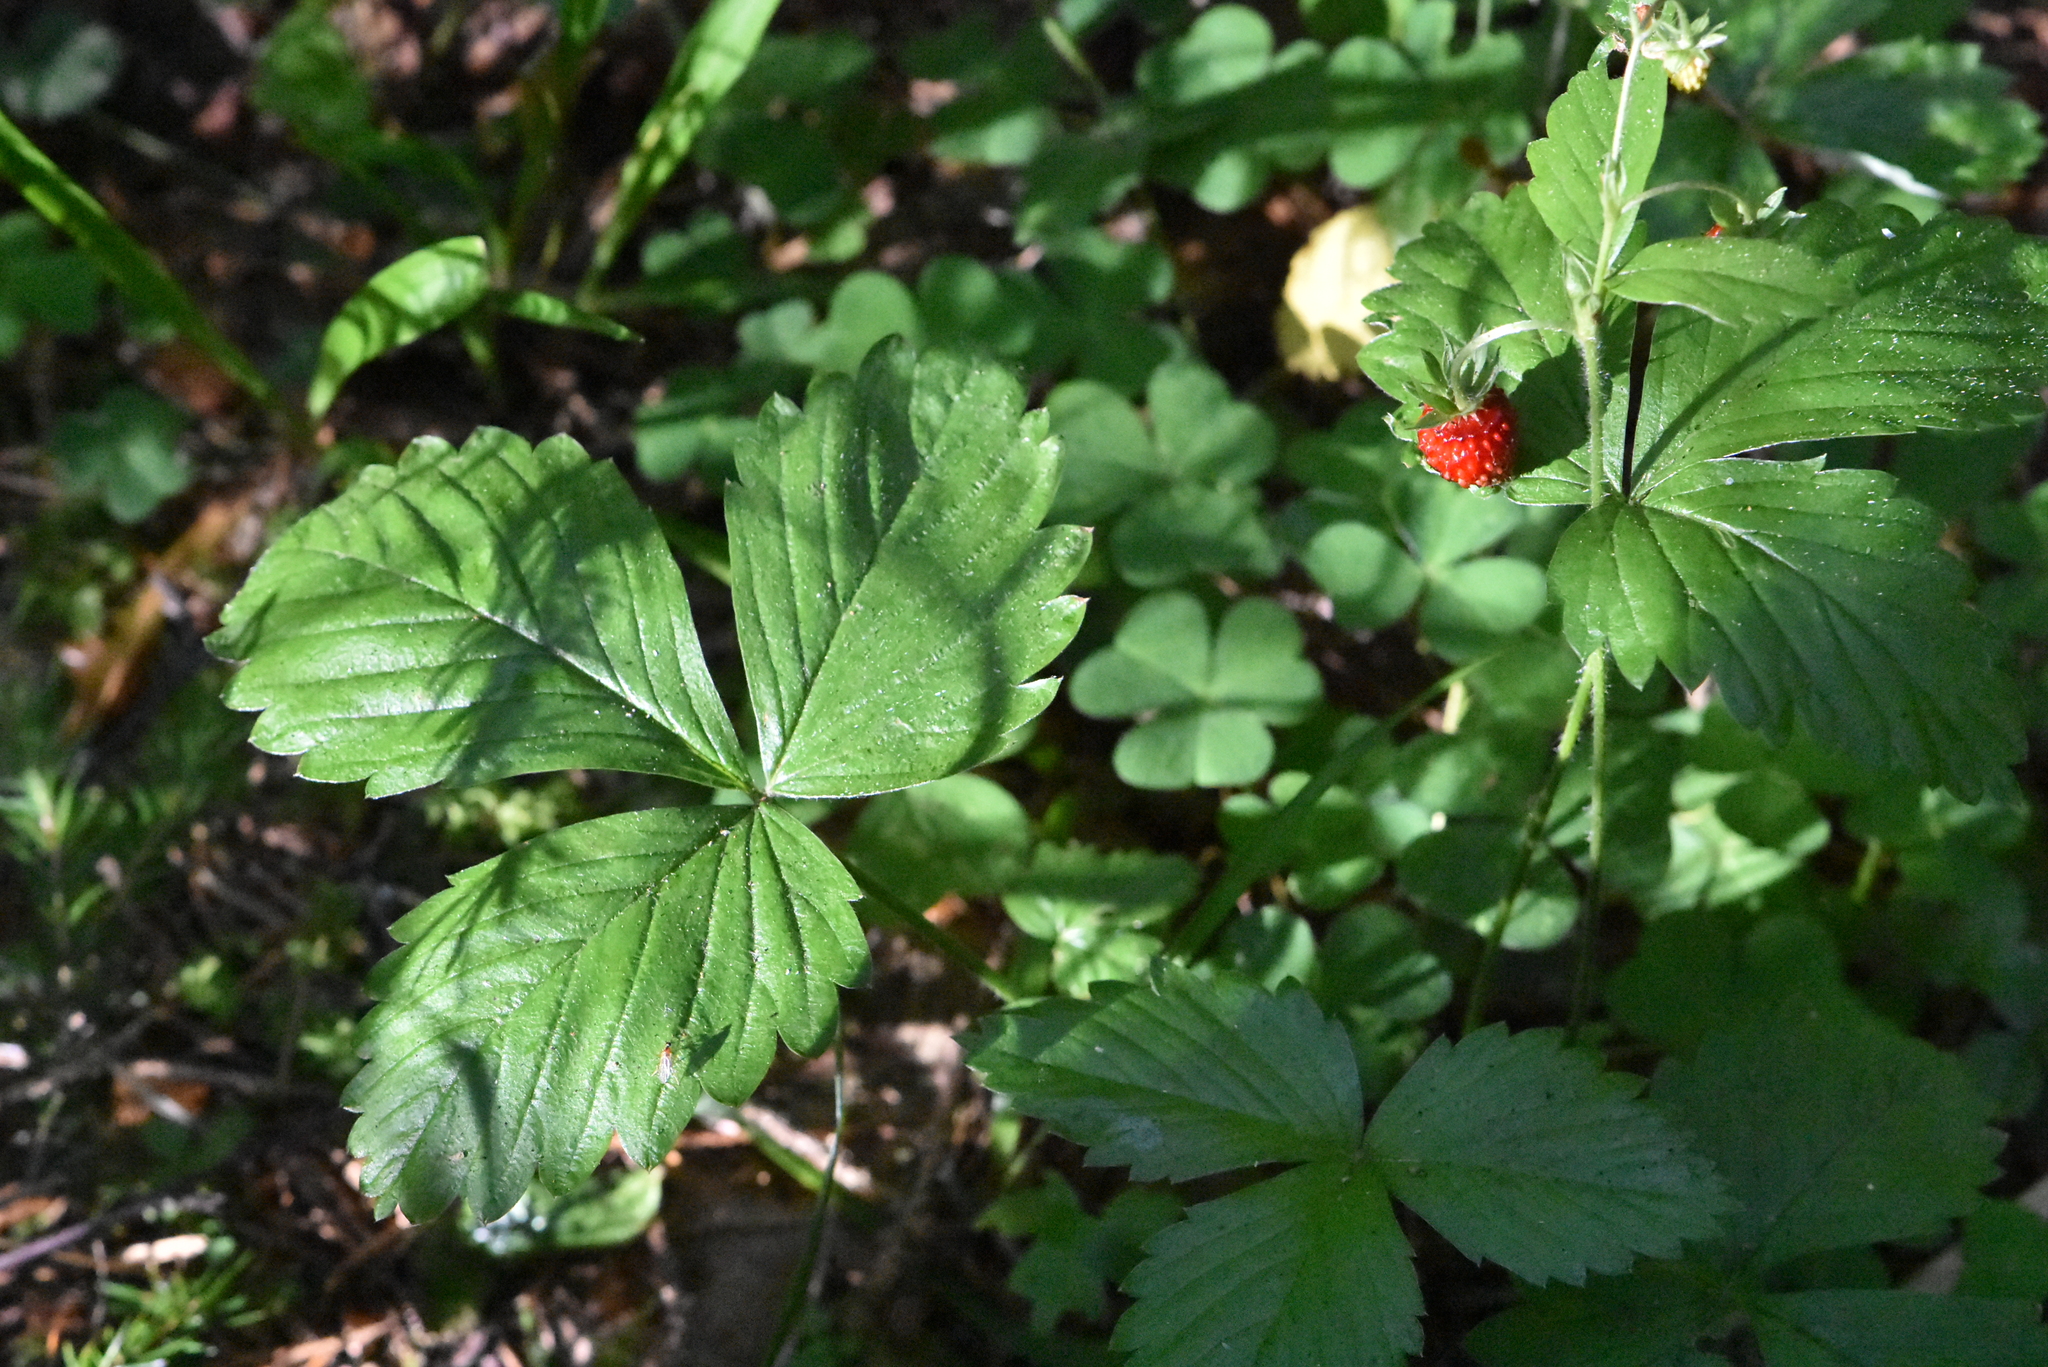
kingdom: Plantae
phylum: Tracheophyta
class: Magnoliopsida
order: Rosales
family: Rosaceae
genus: Fragaria
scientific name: Fragaria vesca
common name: Wild strawberry
